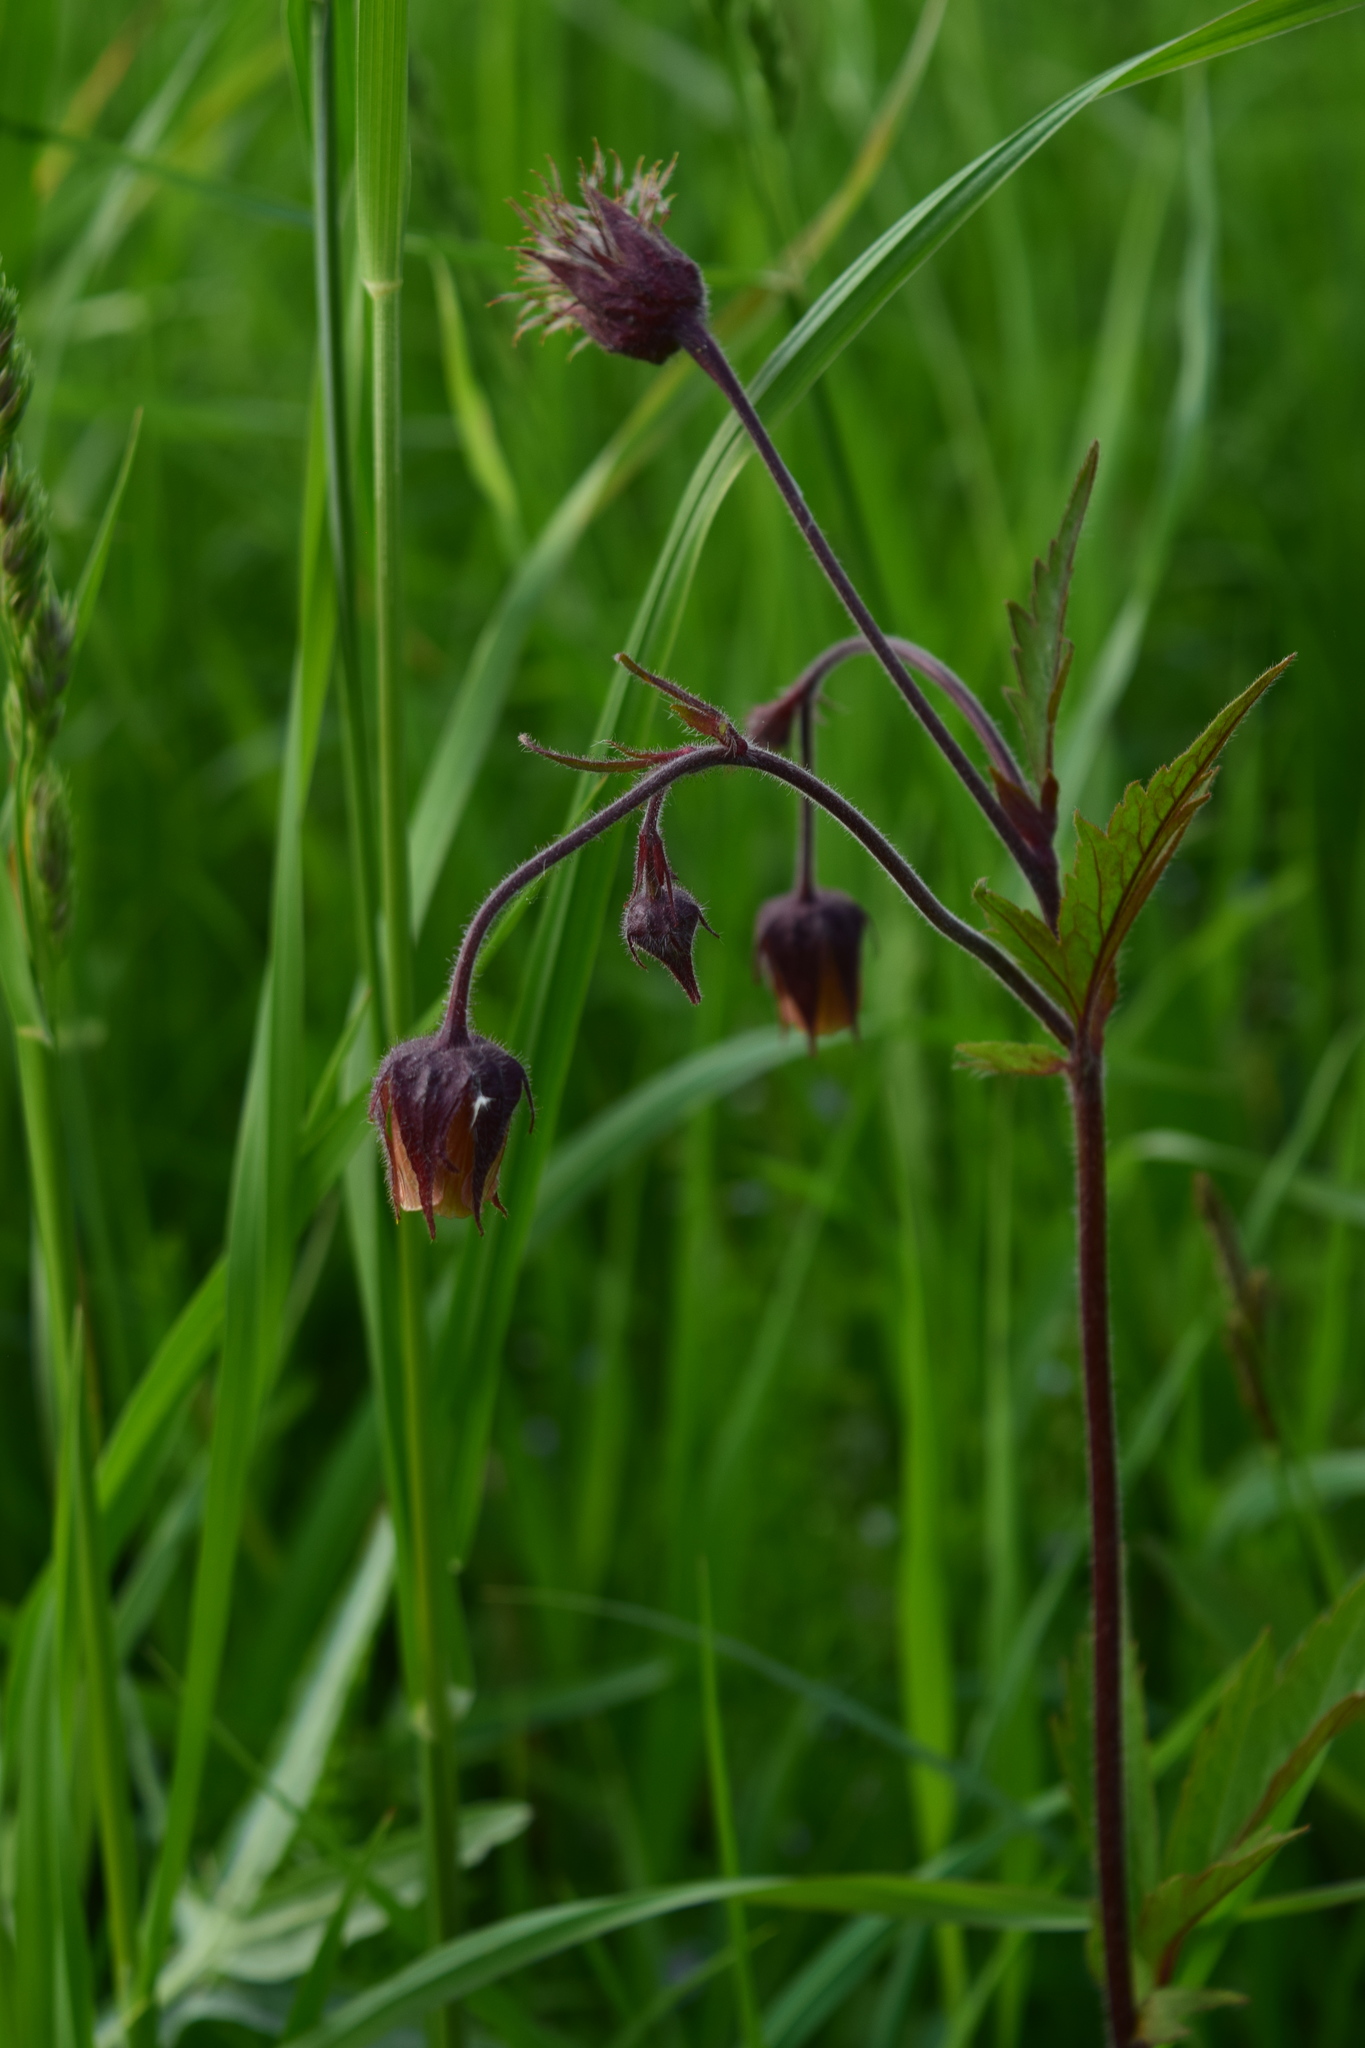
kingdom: Plantae
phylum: Tracheophyta
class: Magnoliopsida
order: Rosales
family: Rosaceae
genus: Geum
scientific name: Geum rivale
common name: Water avens
